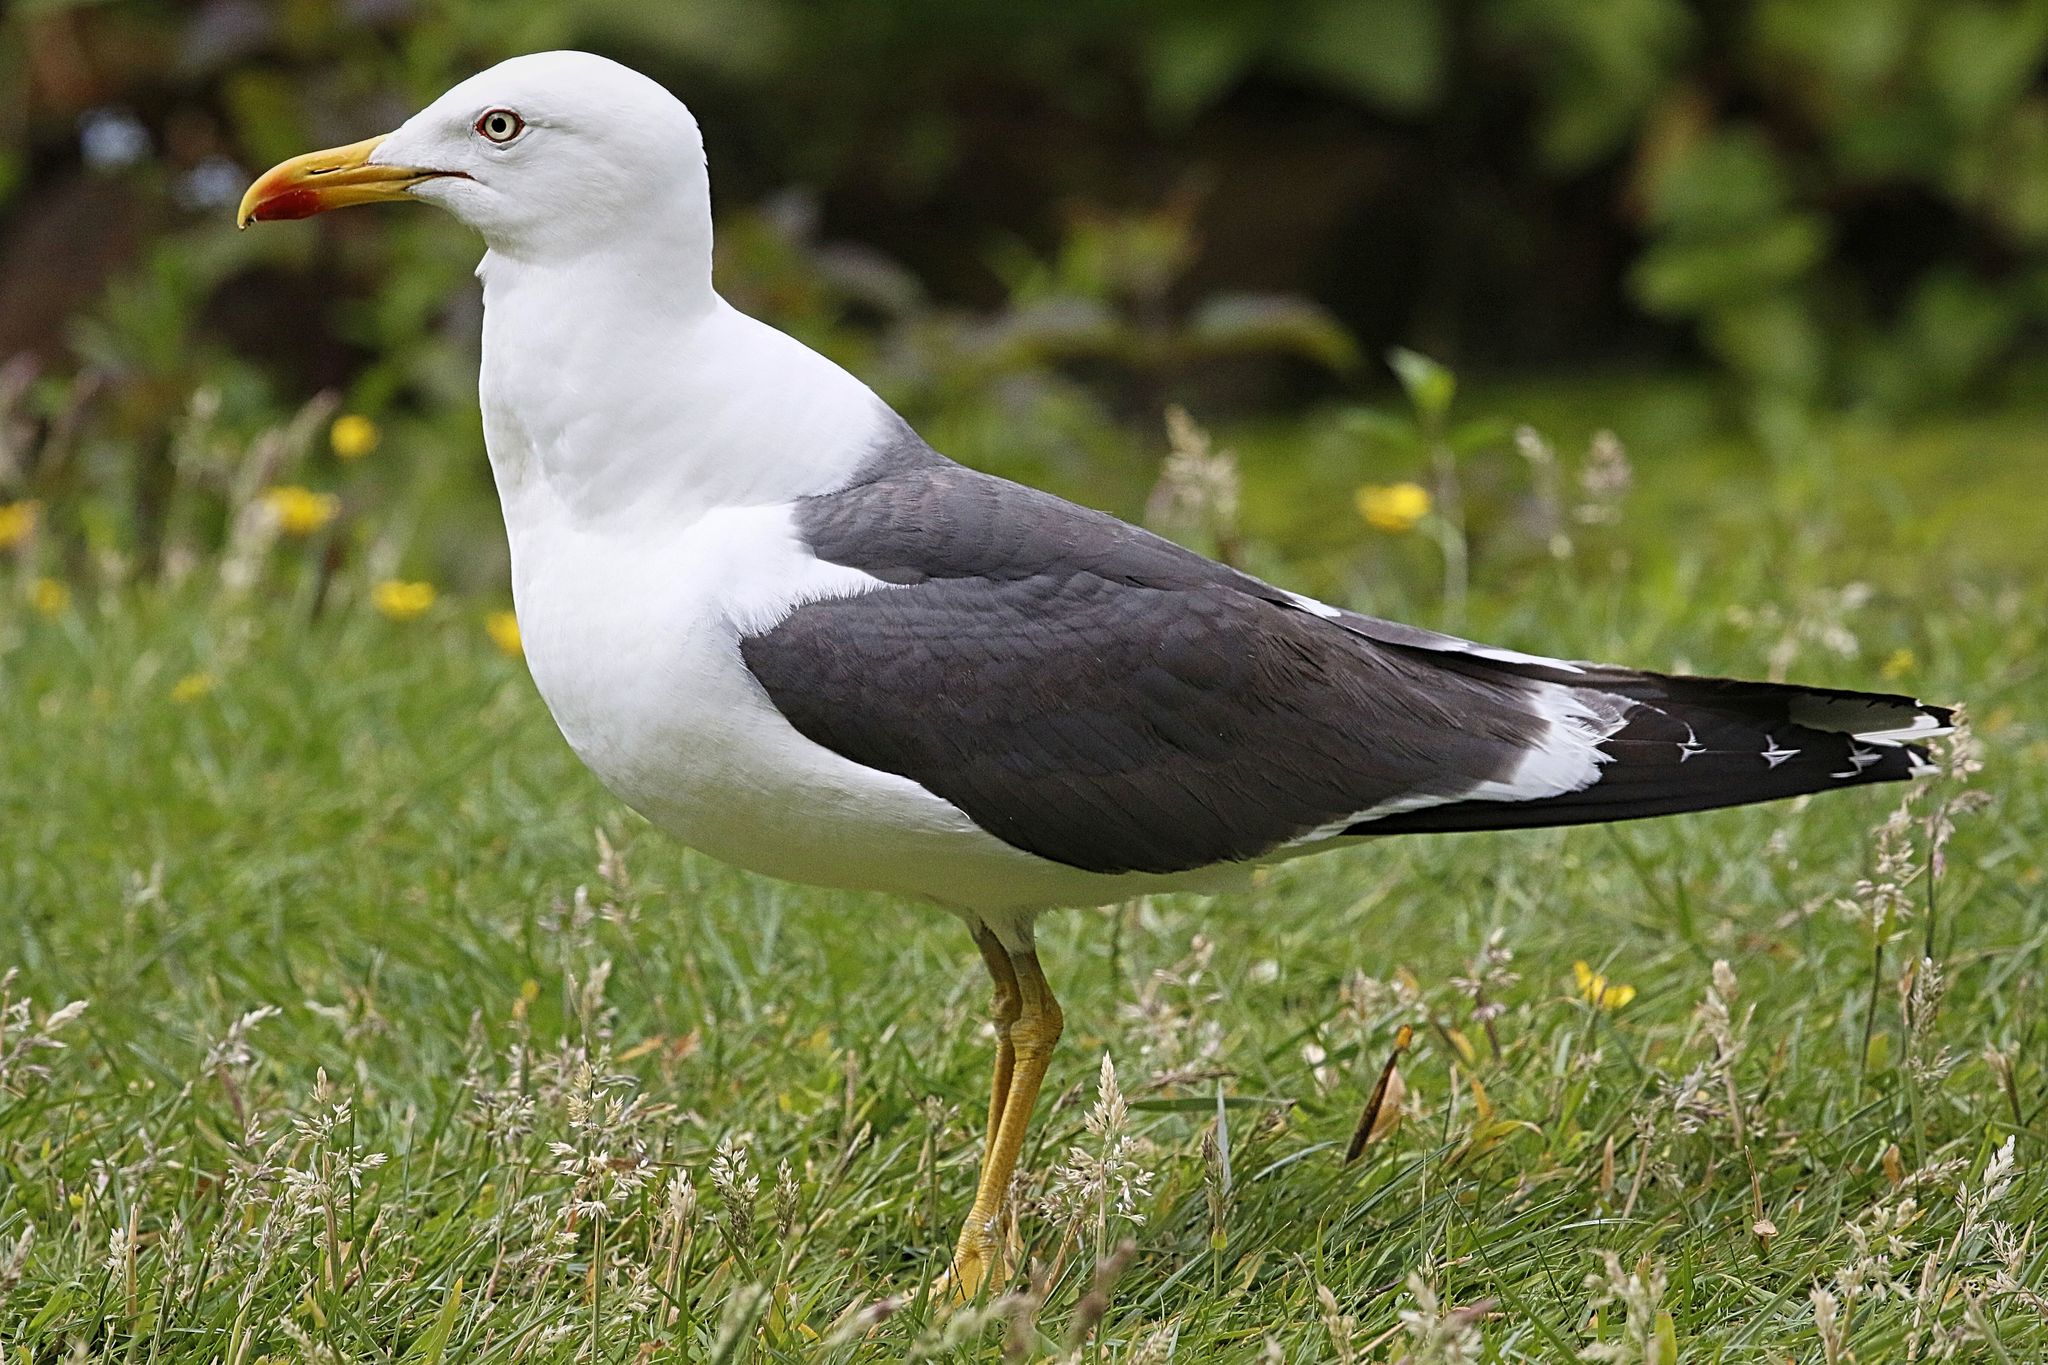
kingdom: Animalia
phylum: Chordata
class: Aves
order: Charadriiformes
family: Laridae
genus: Larus
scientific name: Larus fuscus
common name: Lesser black-backed gull
